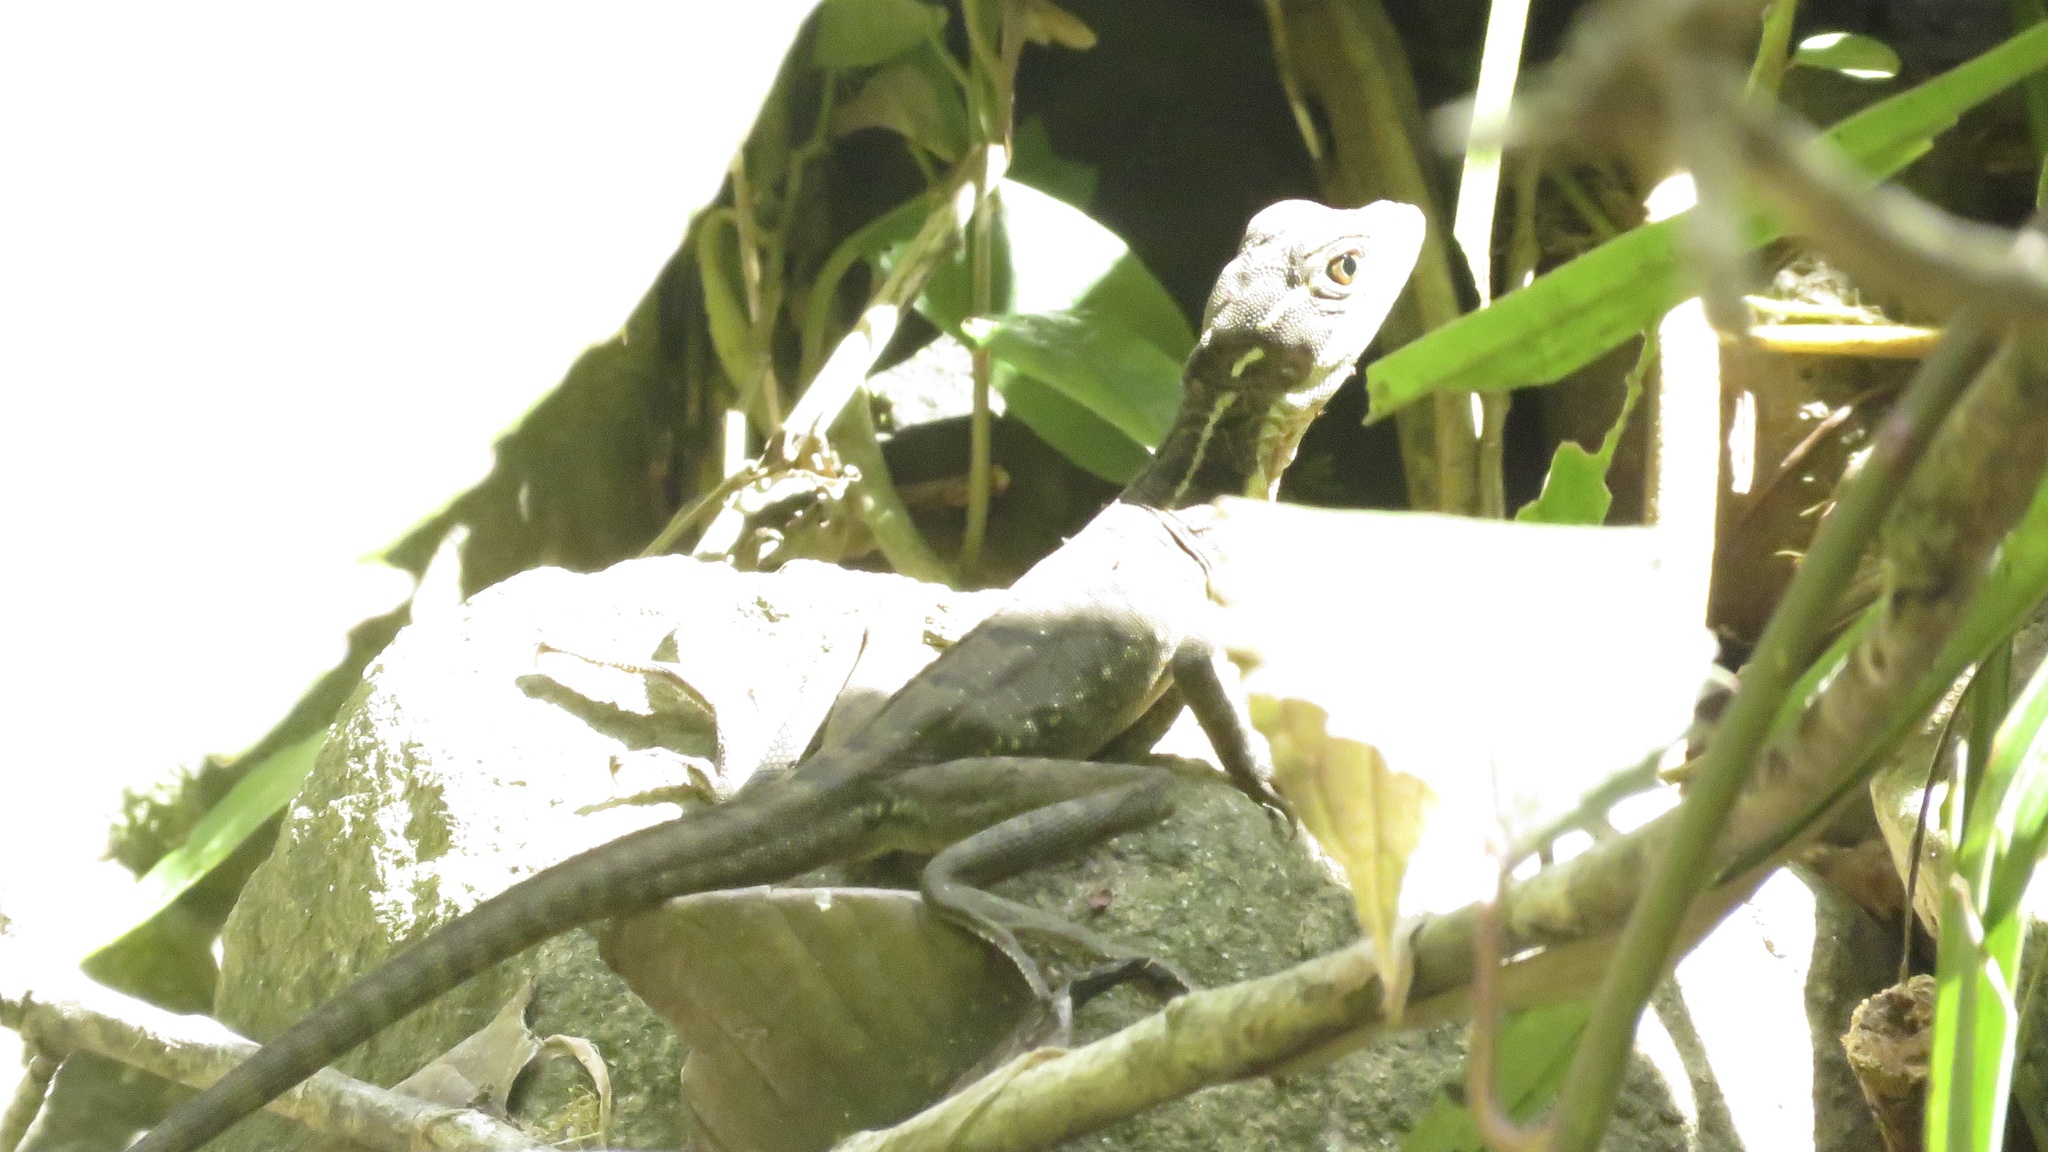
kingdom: Animalia
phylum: Chordata
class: Squamata
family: Corytophanidae
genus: Basiliscus
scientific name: Basiliscus basiliscus
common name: Common basilisk
